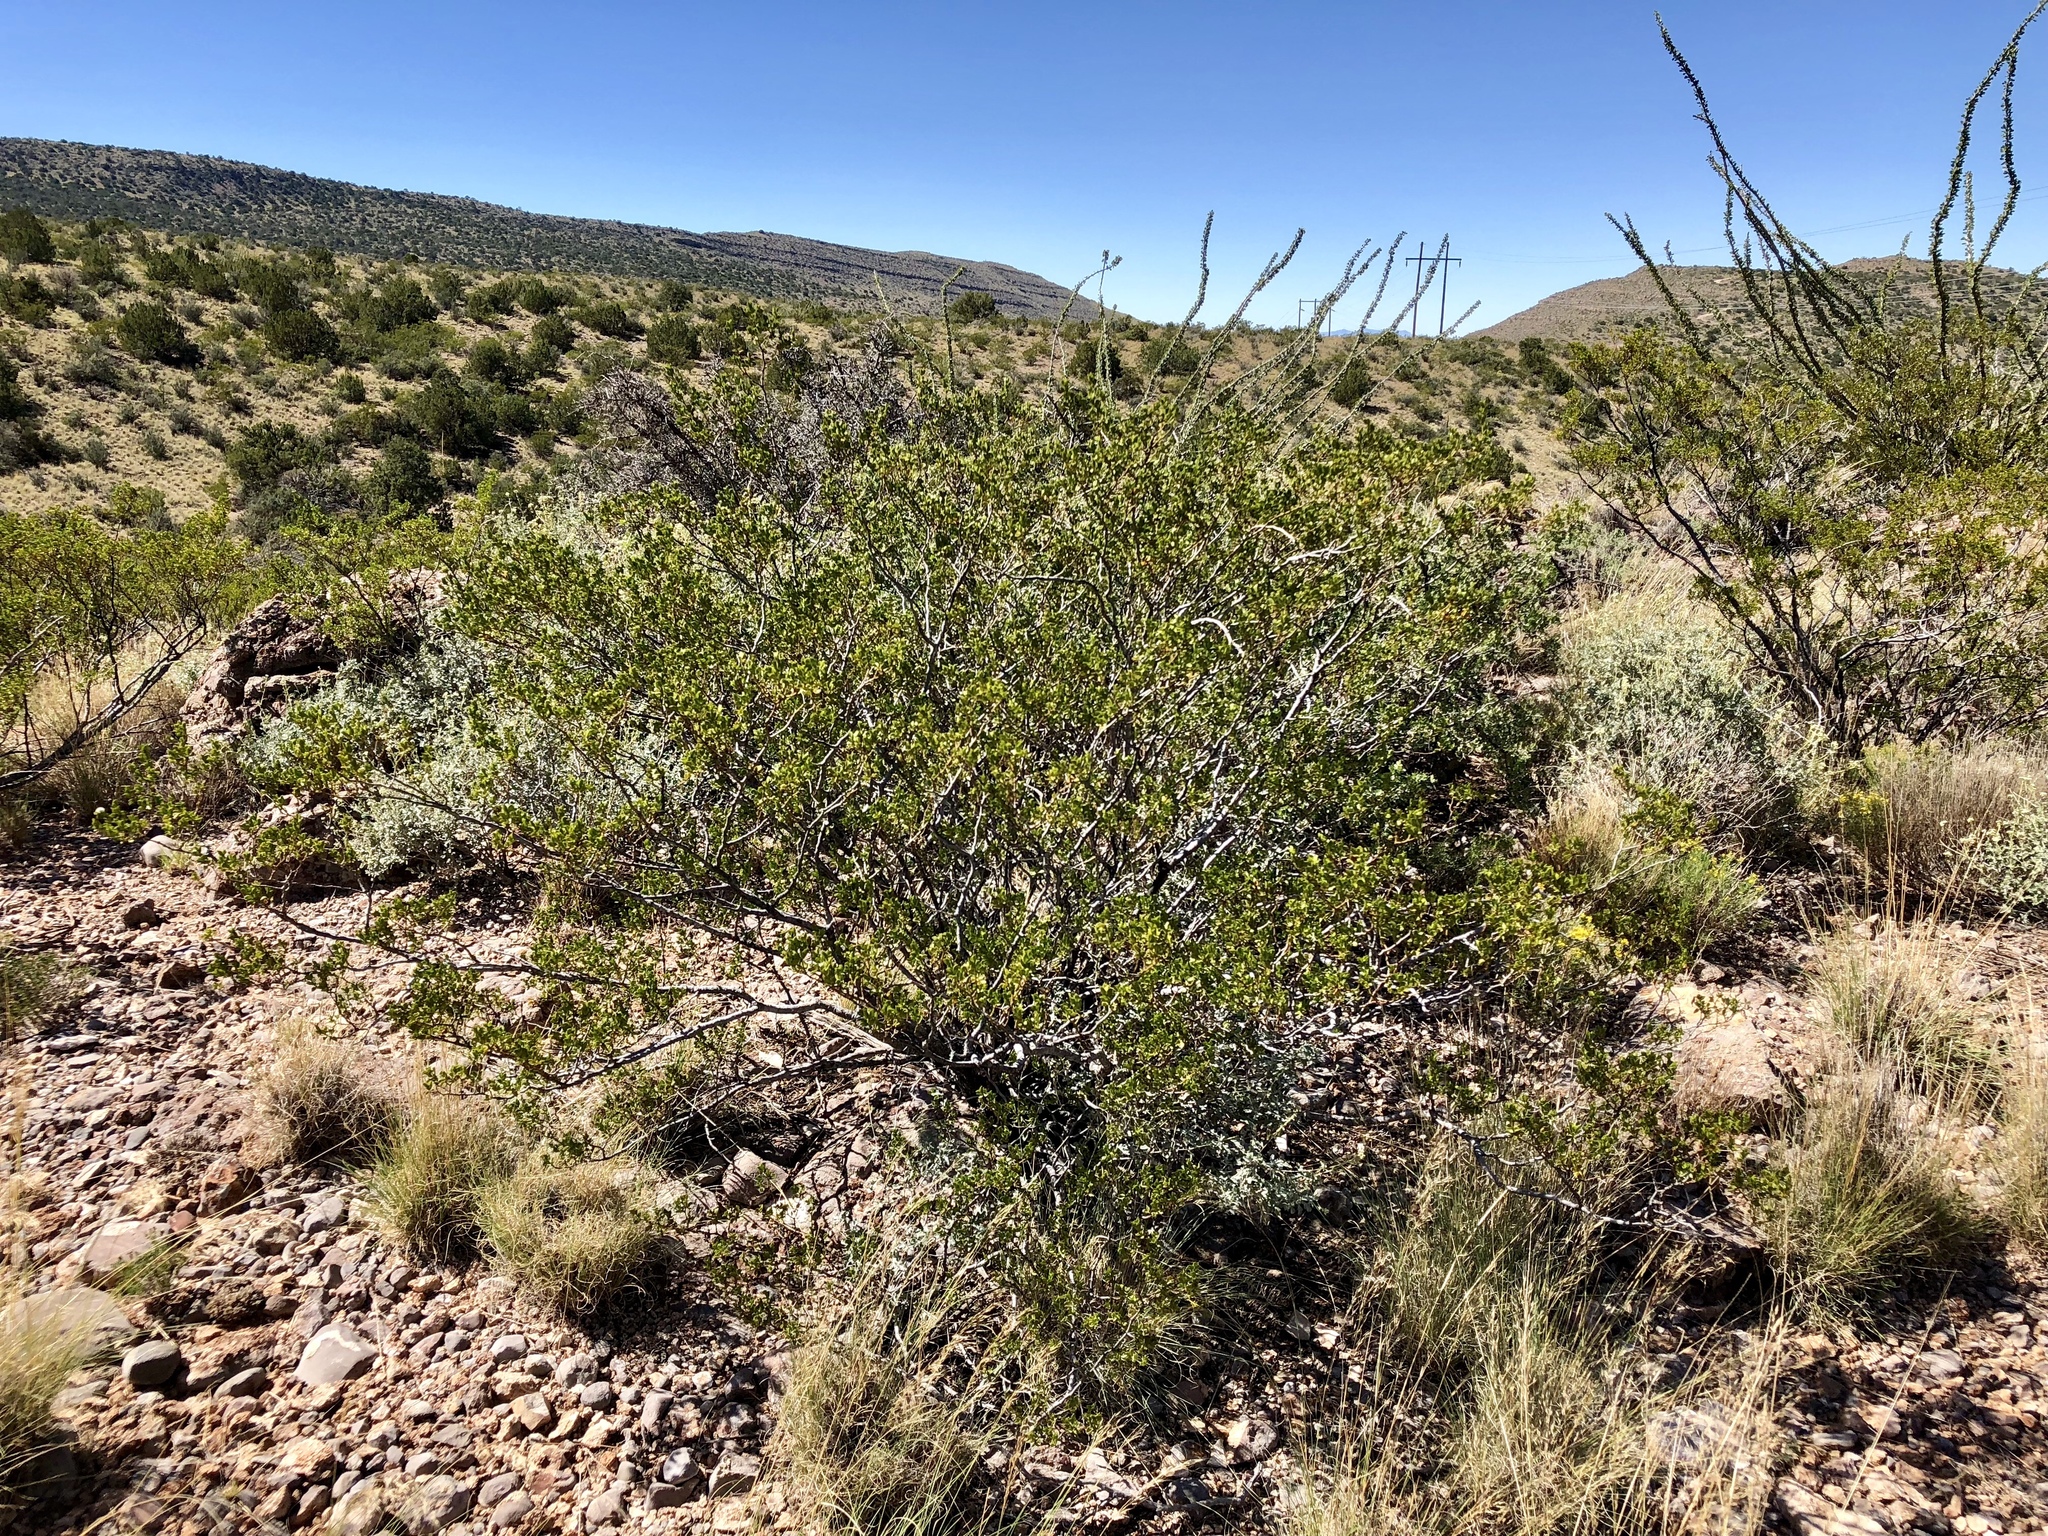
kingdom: Plantae
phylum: Tracheophyta
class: Magnoliopsida
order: Zygophyllales
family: Zygophyllaceae
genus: Larrea
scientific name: Larrea tridentata
